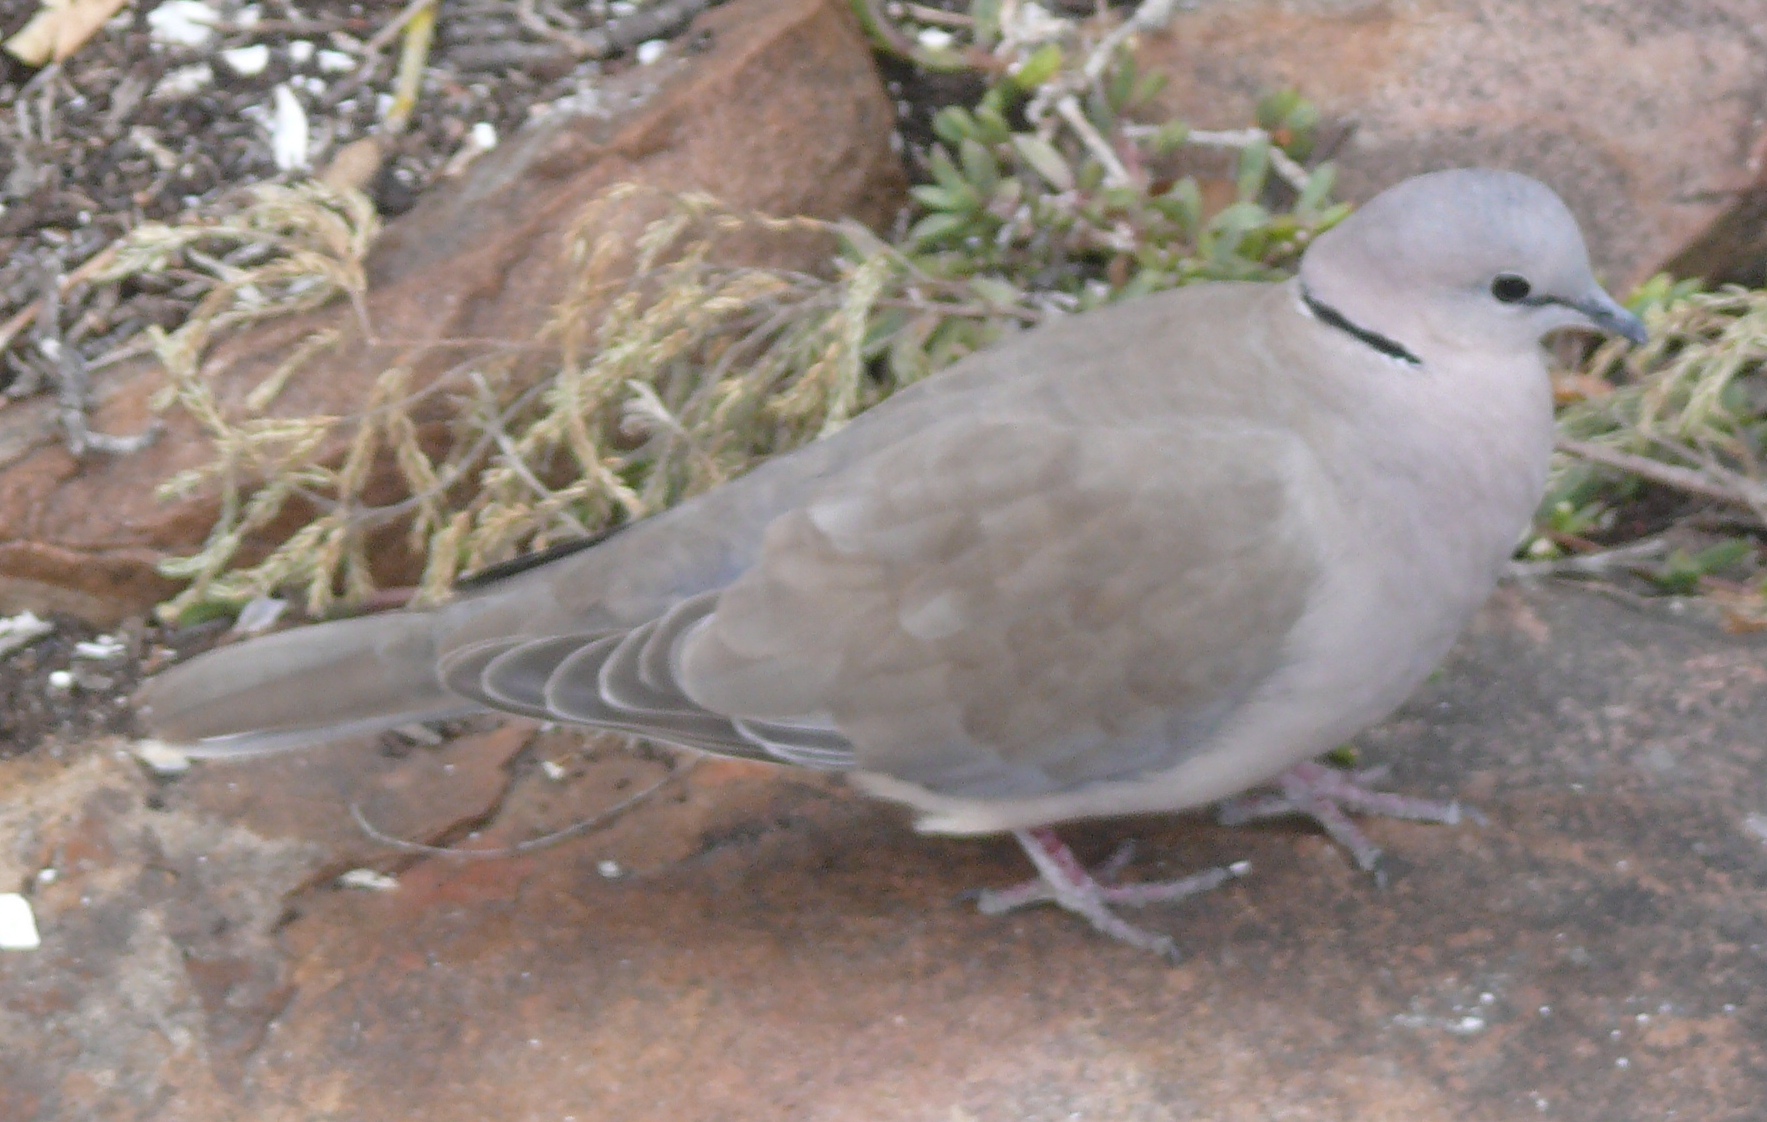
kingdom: Animalia
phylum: Chordata
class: Aves
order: Columbiformes
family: Columbidae
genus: Streptopelia
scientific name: Streptopelia capicola
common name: Ring-necked dove
